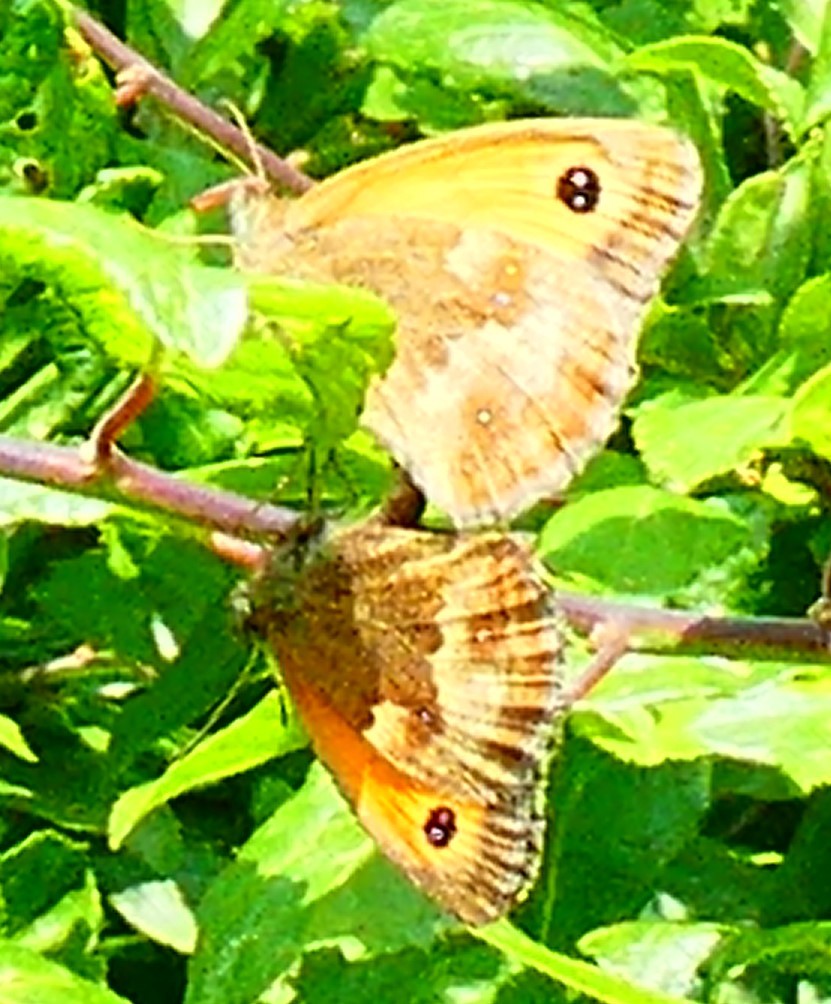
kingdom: Animalia
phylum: Arthropoda
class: Insecta
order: Lepidoptera
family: Nymphalidae
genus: Pyronia
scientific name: Pyronia tithonus
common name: Gatekeeper
